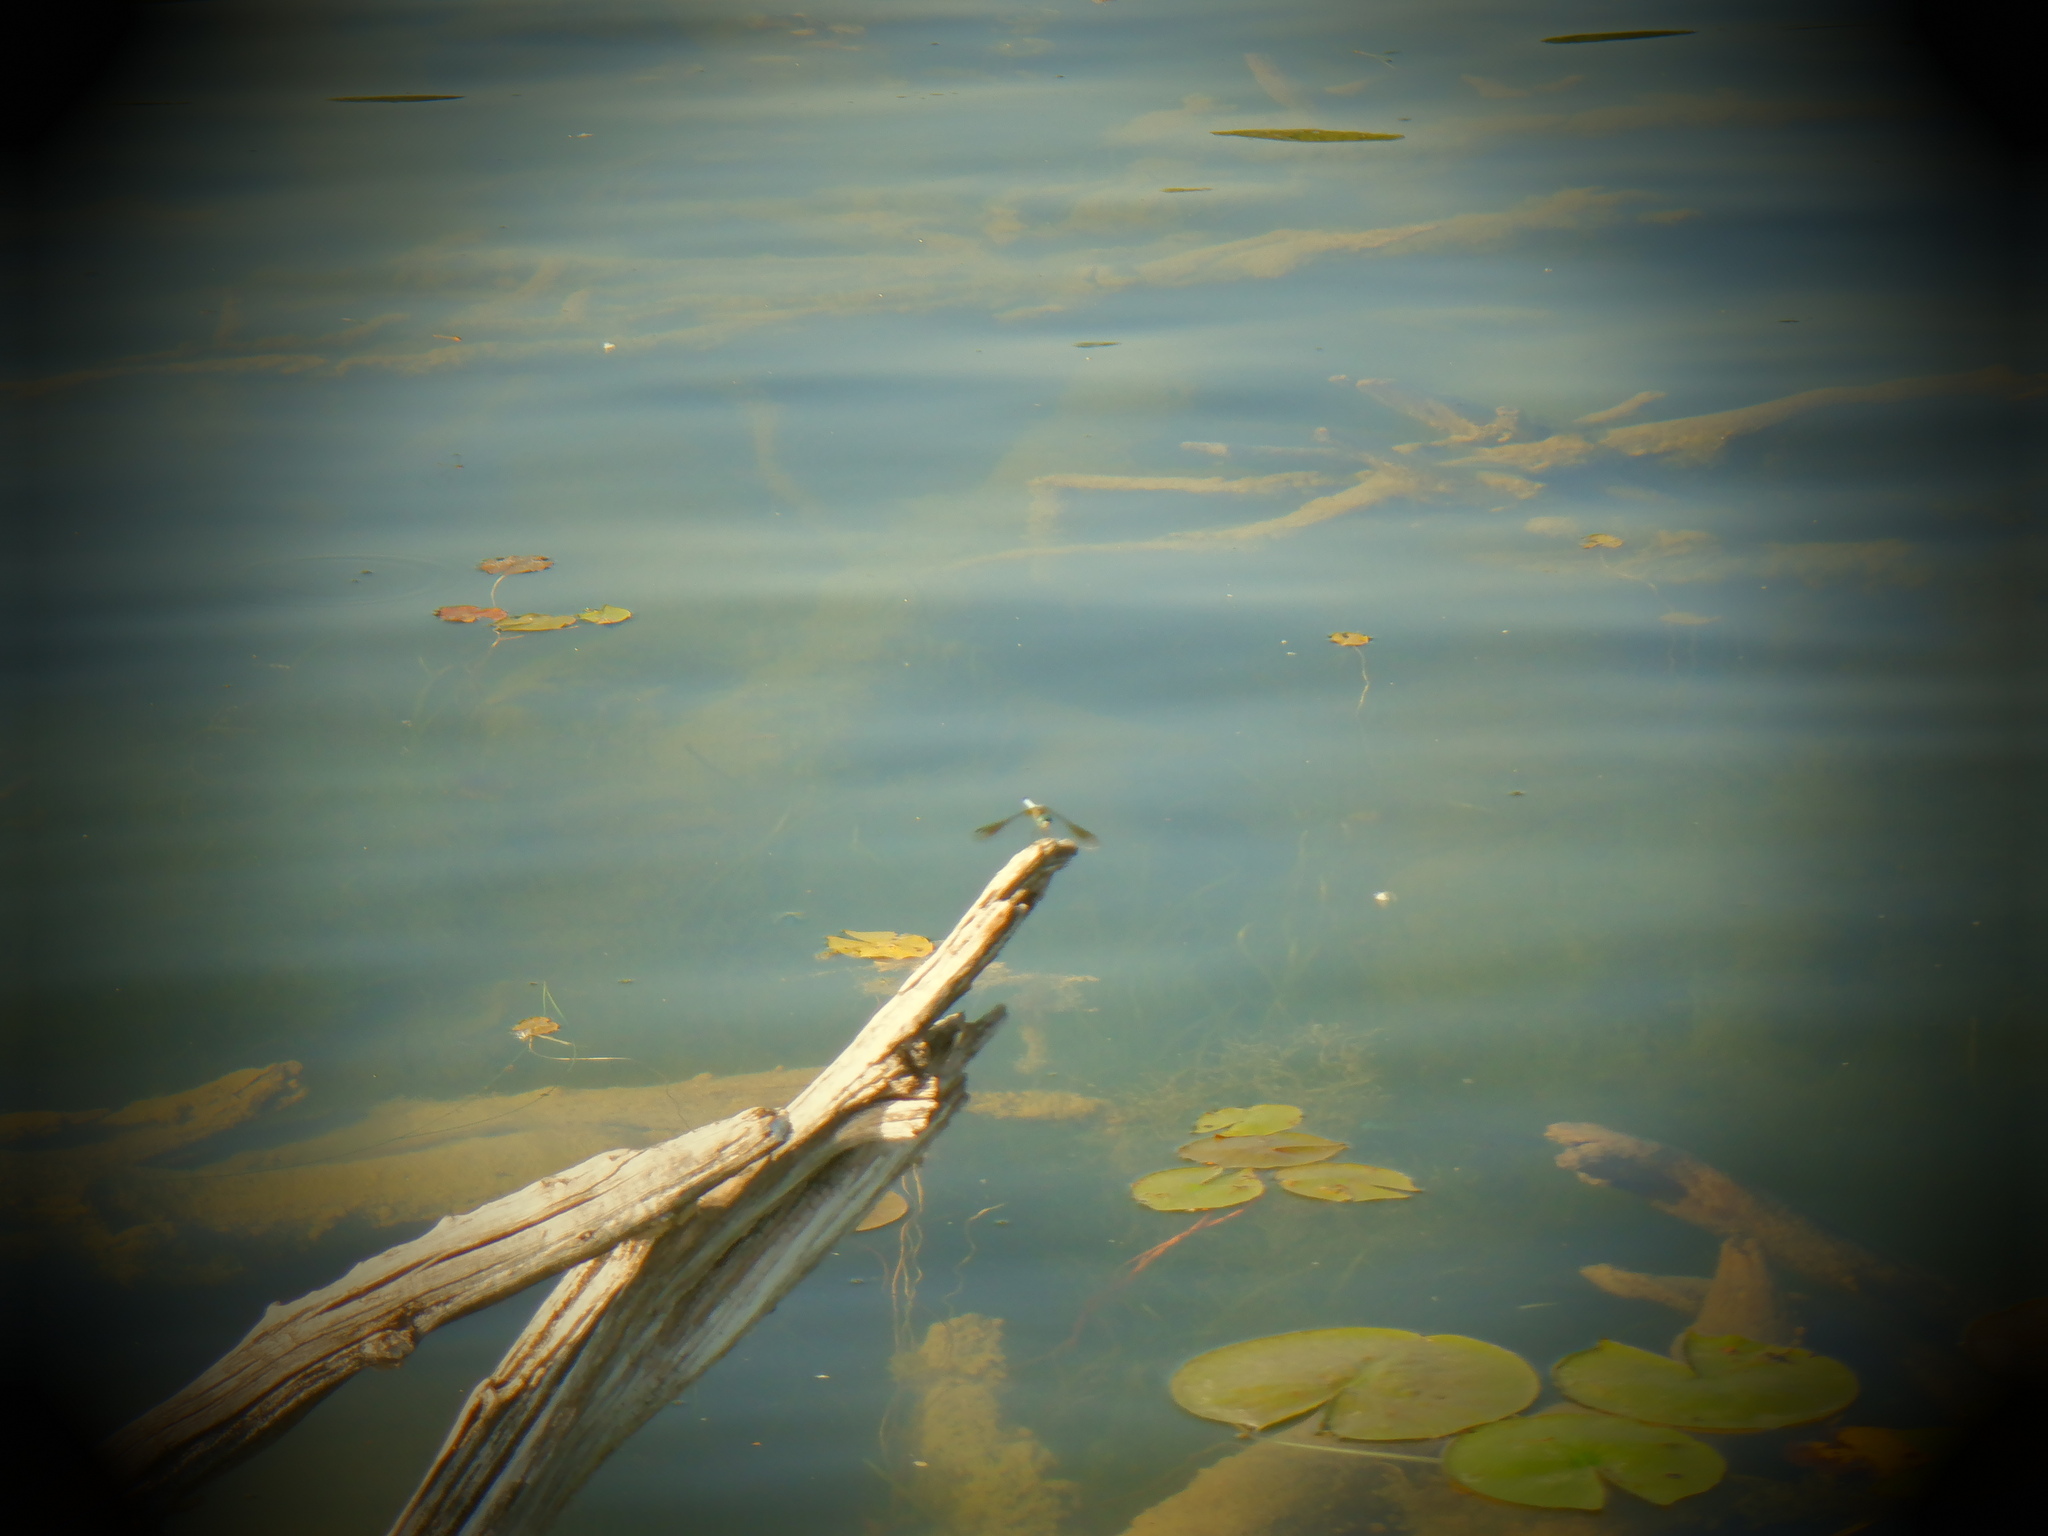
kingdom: Animalia
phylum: Arthropoda
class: Insecta
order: Odonata
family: Libellulidae
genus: Pachydiplax
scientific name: Pachydiplax longipennis
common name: Blue dasher
